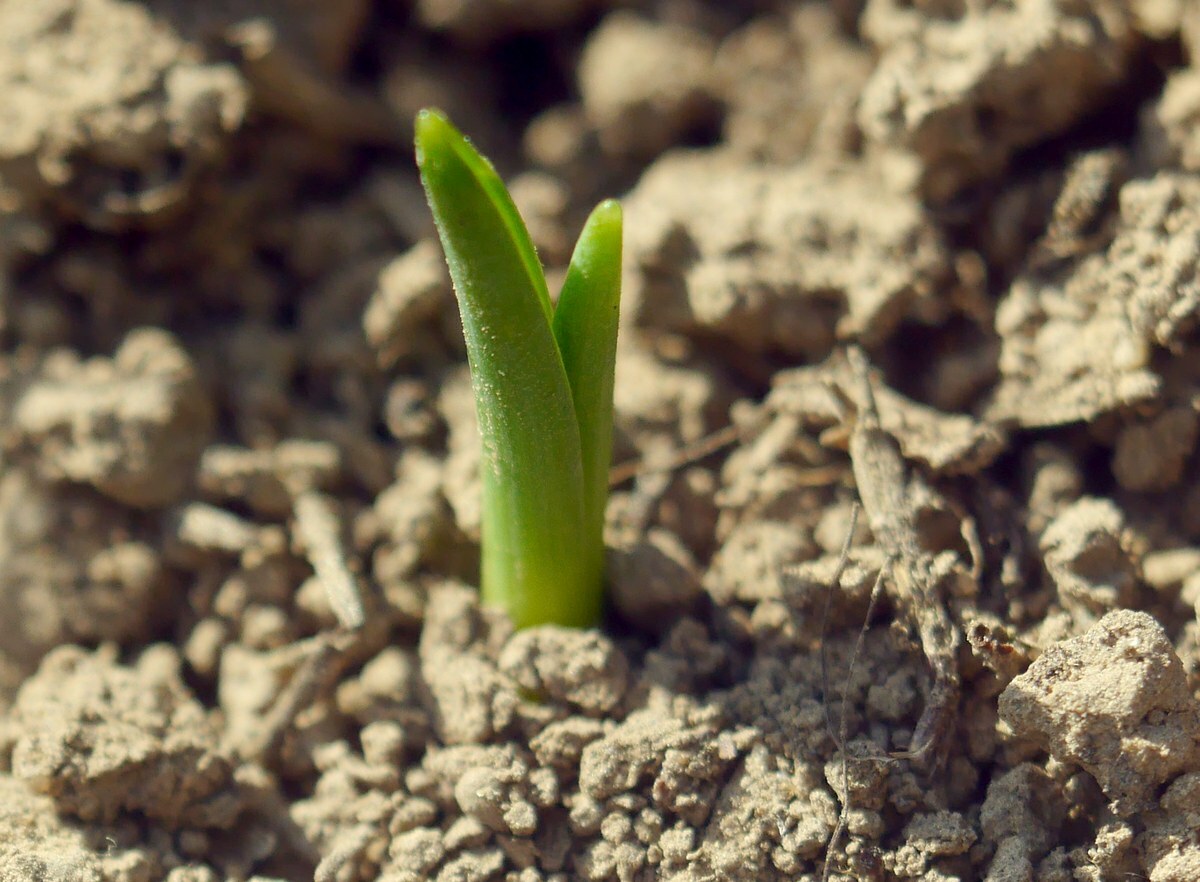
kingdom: Plantae
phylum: Tracheophyta
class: Liliopsida
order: Liliales
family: Colchicaceae
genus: Colchicum
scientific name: Colchicum bulbocodium
